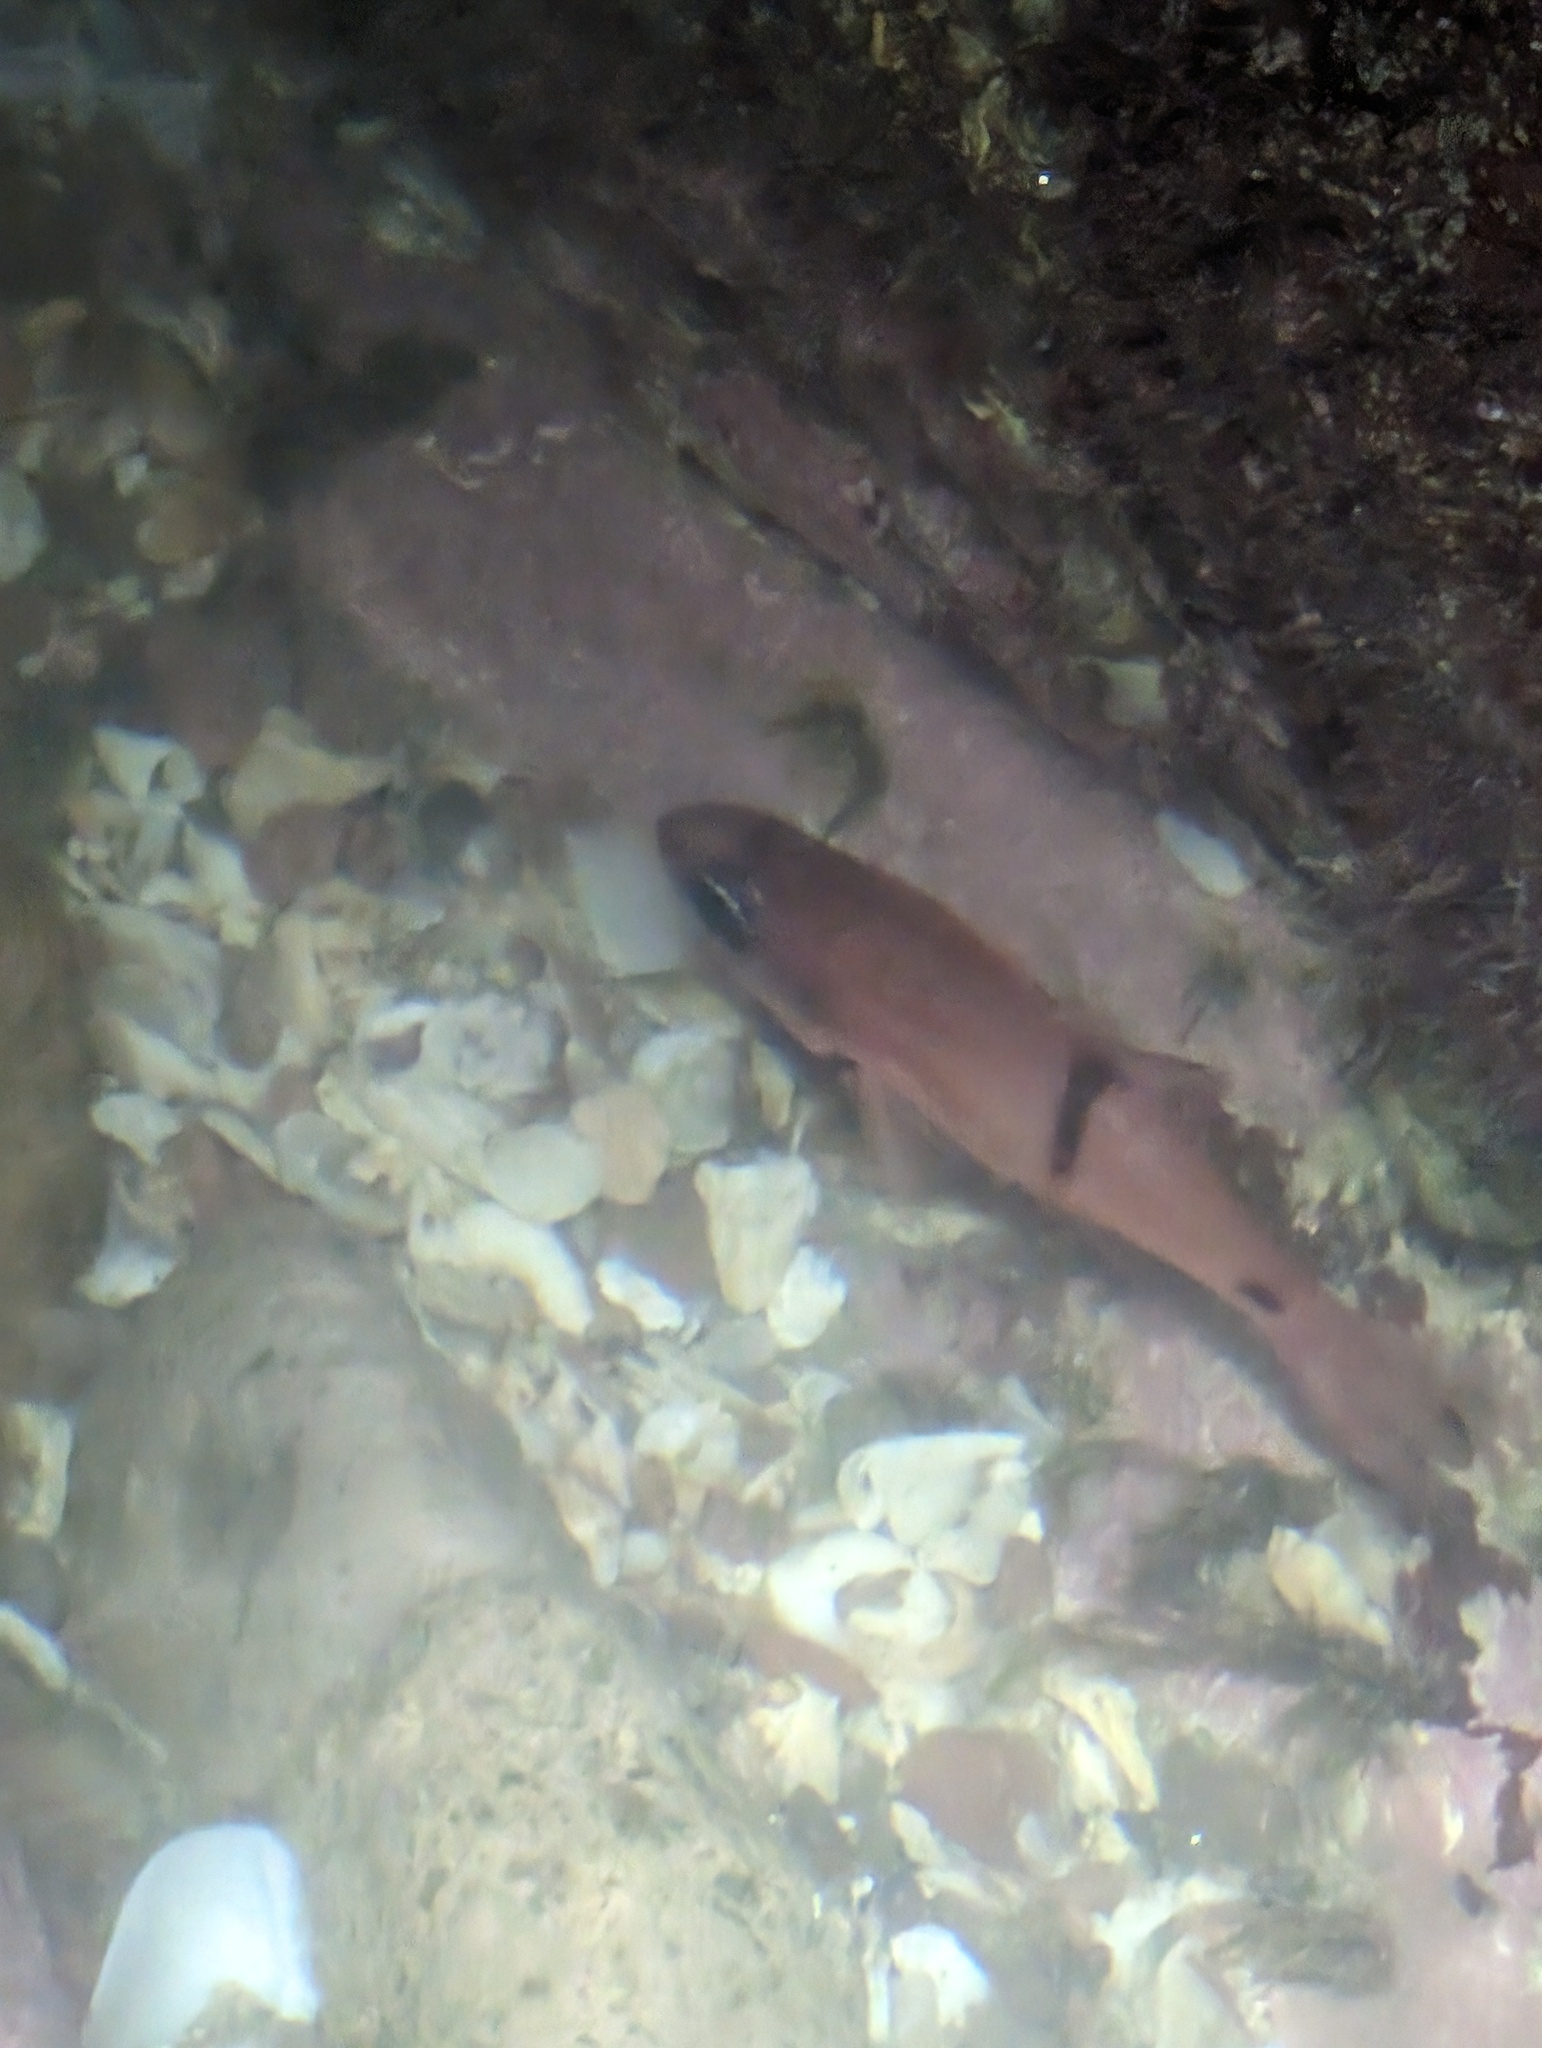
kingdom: Animalia
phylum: Chordata
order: Perciformes
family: Apogonidae
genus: Apogon
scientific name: Apogon retrosella
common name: Barspot cardinalfish
